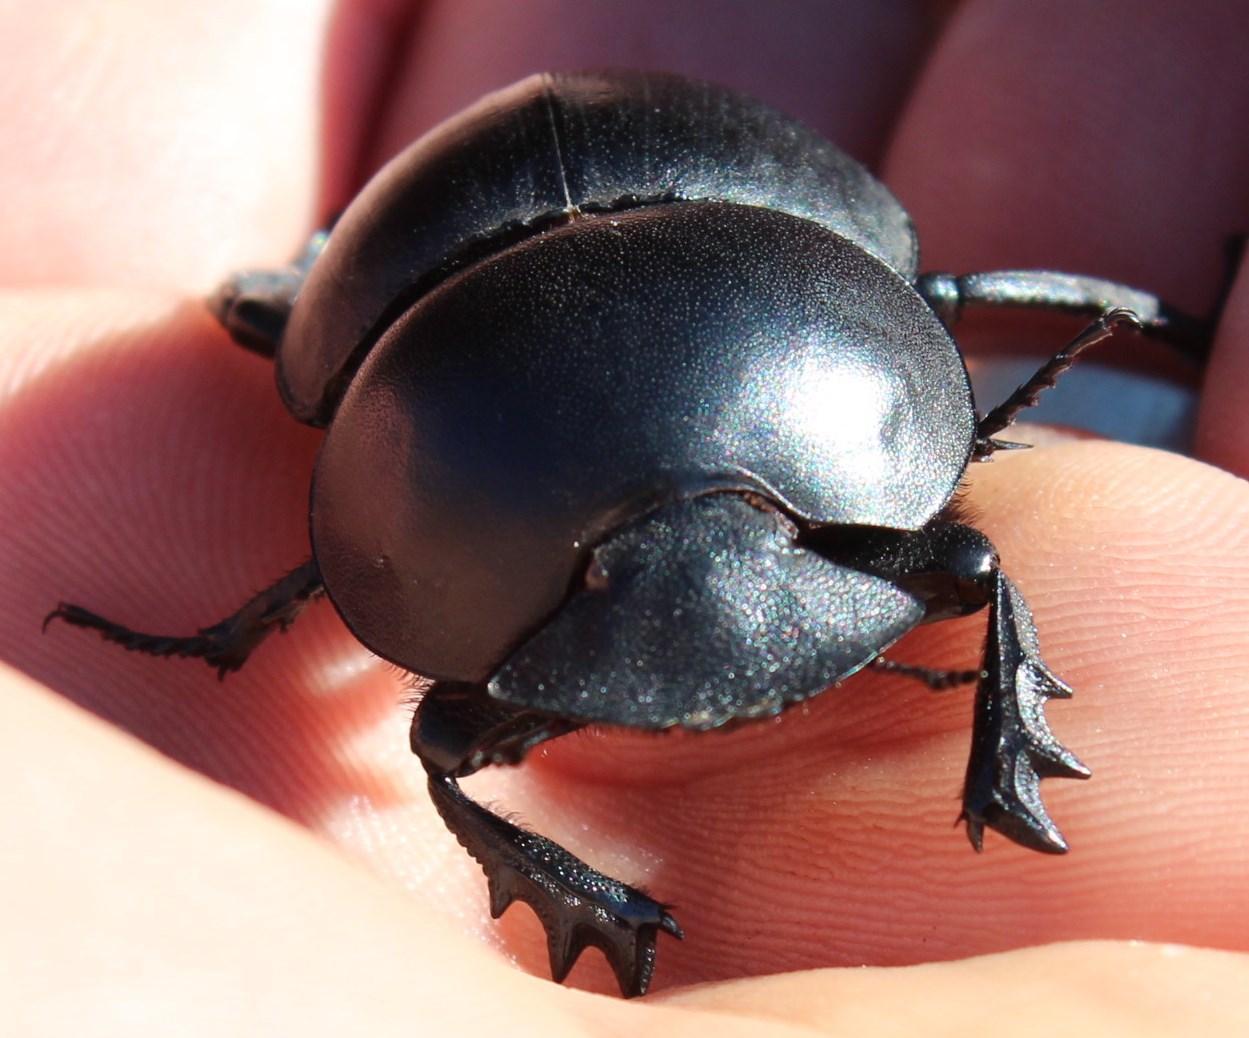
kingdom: Animalia
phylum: Arthropoda
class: Insecta
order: Coleoptera
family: Scarabaeidae
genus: Circellium
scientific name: Circellium bacchus
